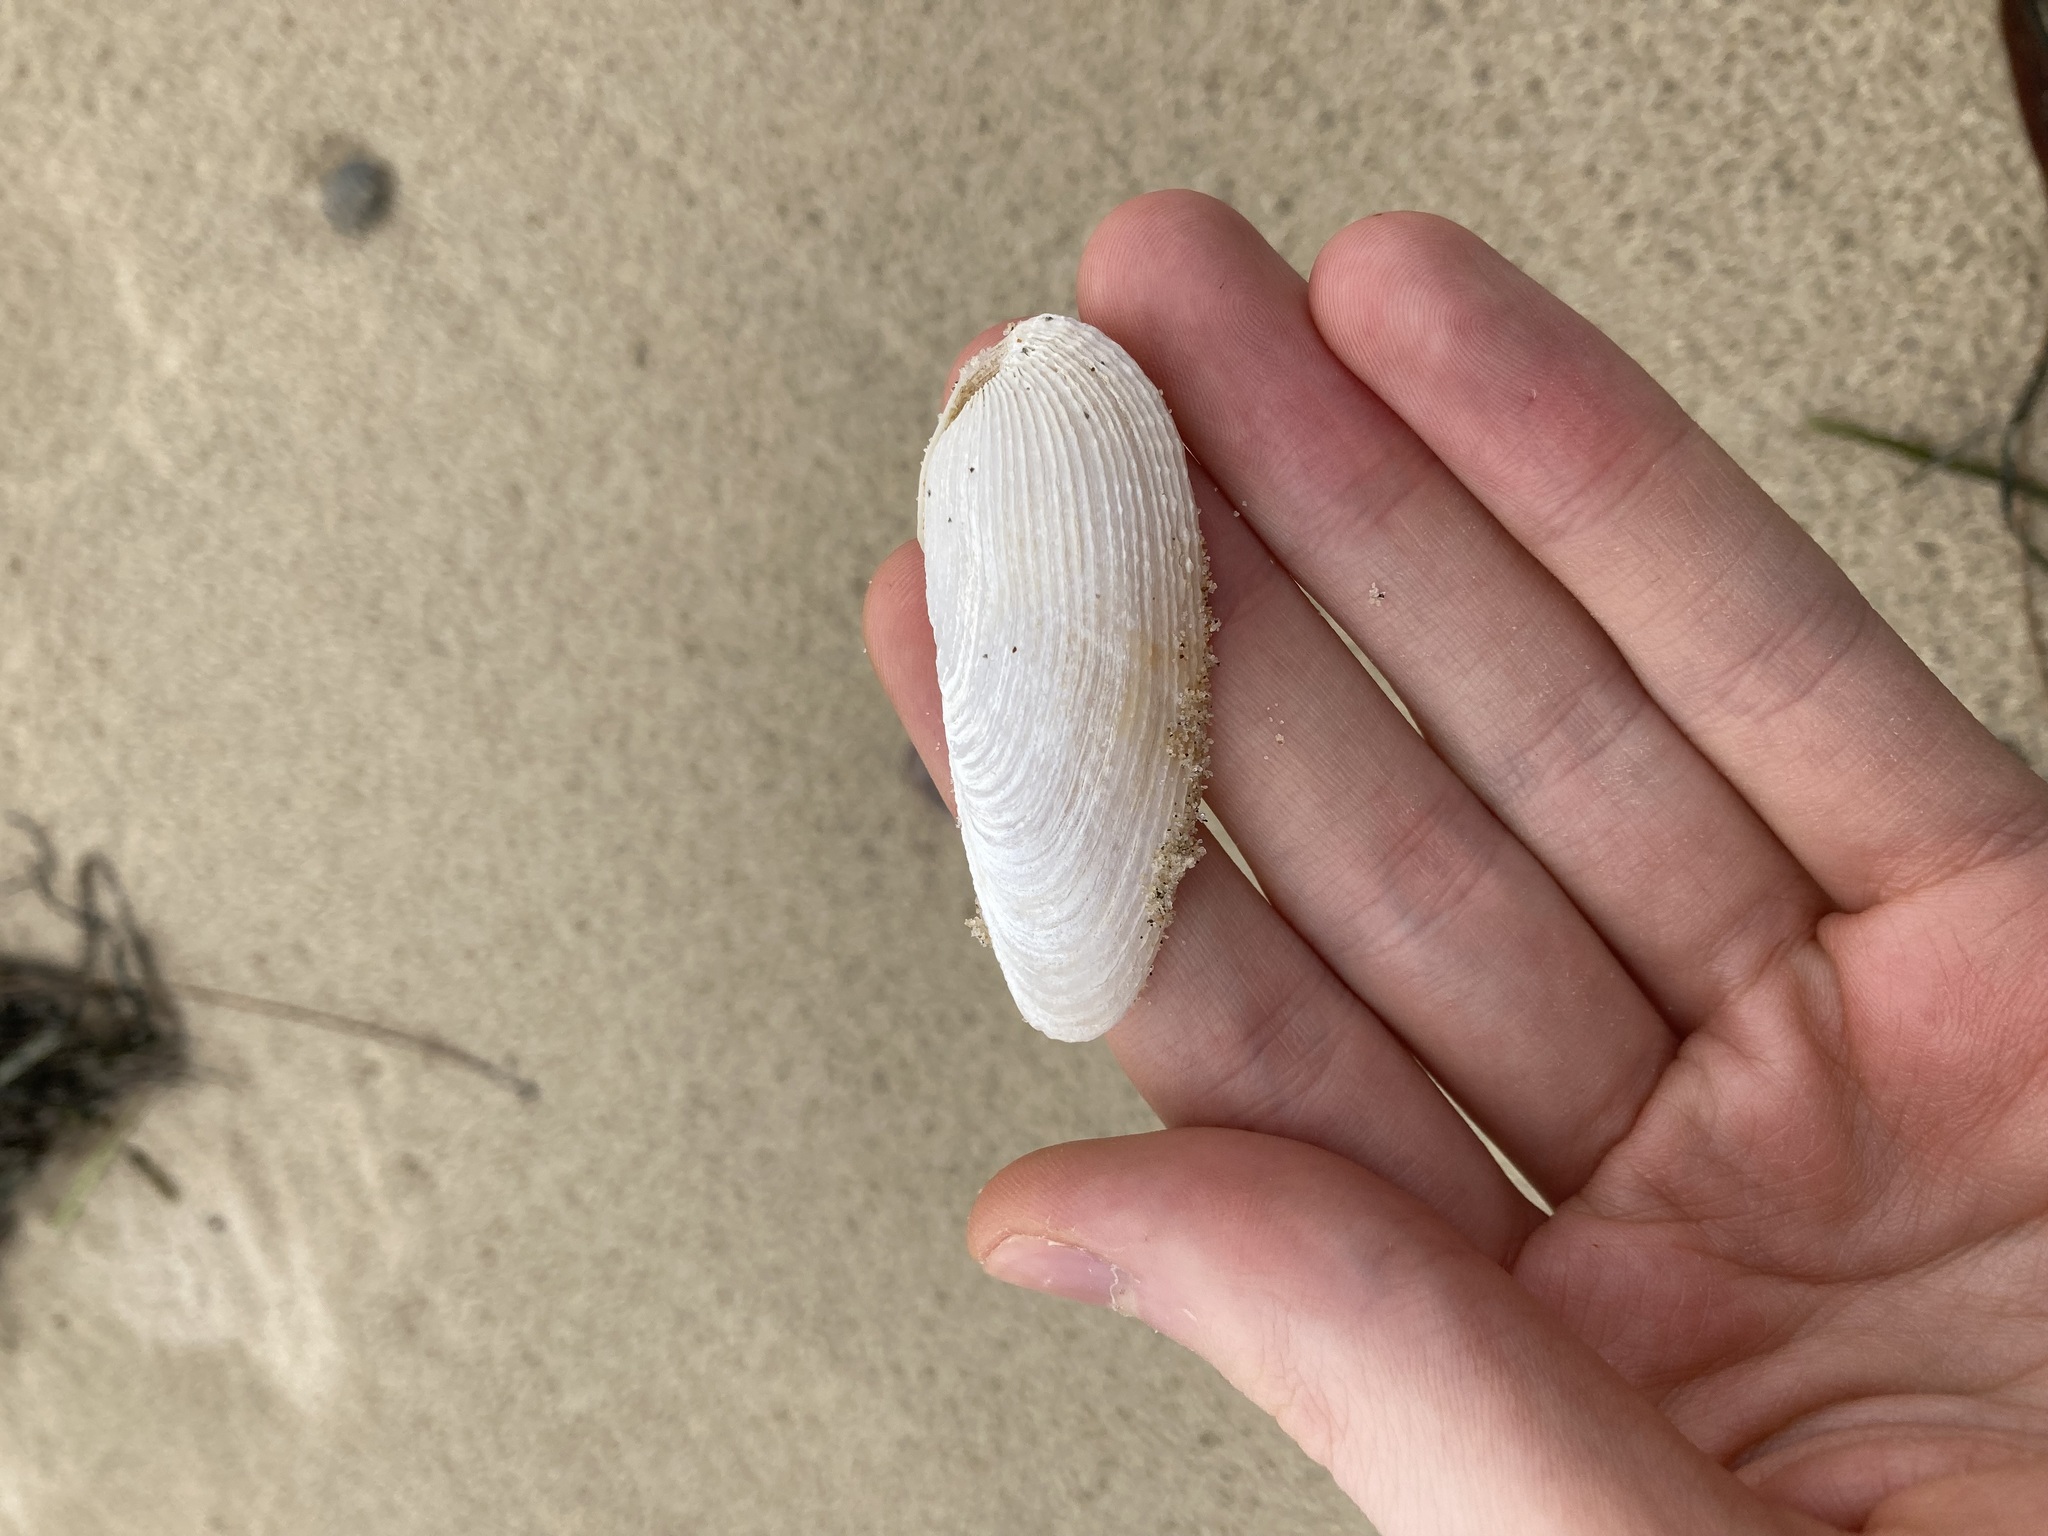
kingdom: Animalia
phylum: Mollusca
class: Bivalvia
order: Myida
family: Pholadidae
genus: Barnea
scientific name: Barnea australasiae
